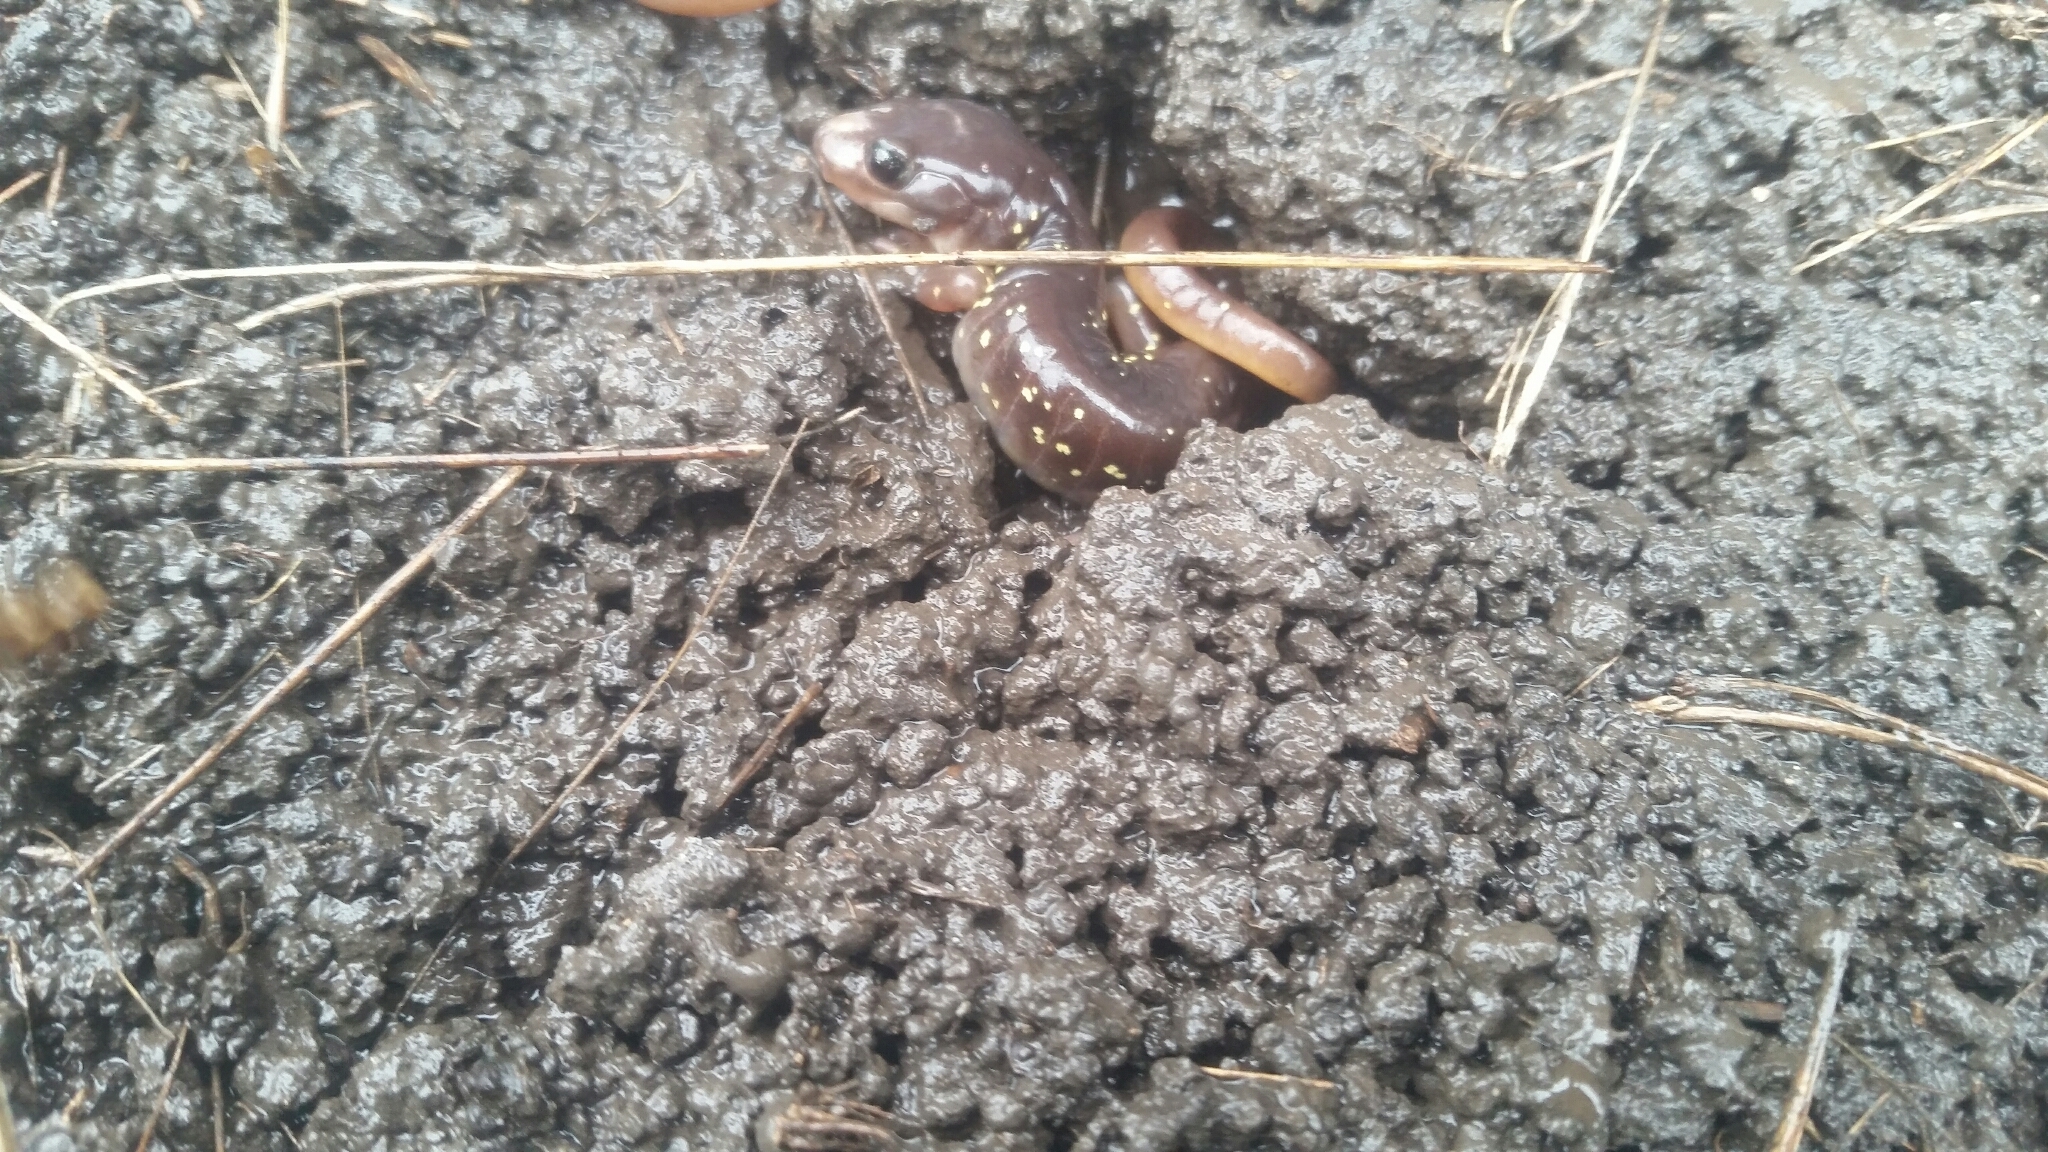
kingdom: Animalia
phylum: Chordata
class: Amphibia
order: Caudata
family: Plethodontidae
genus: Aneides
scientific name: Aneides lugubris
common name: Arboreal salamander
